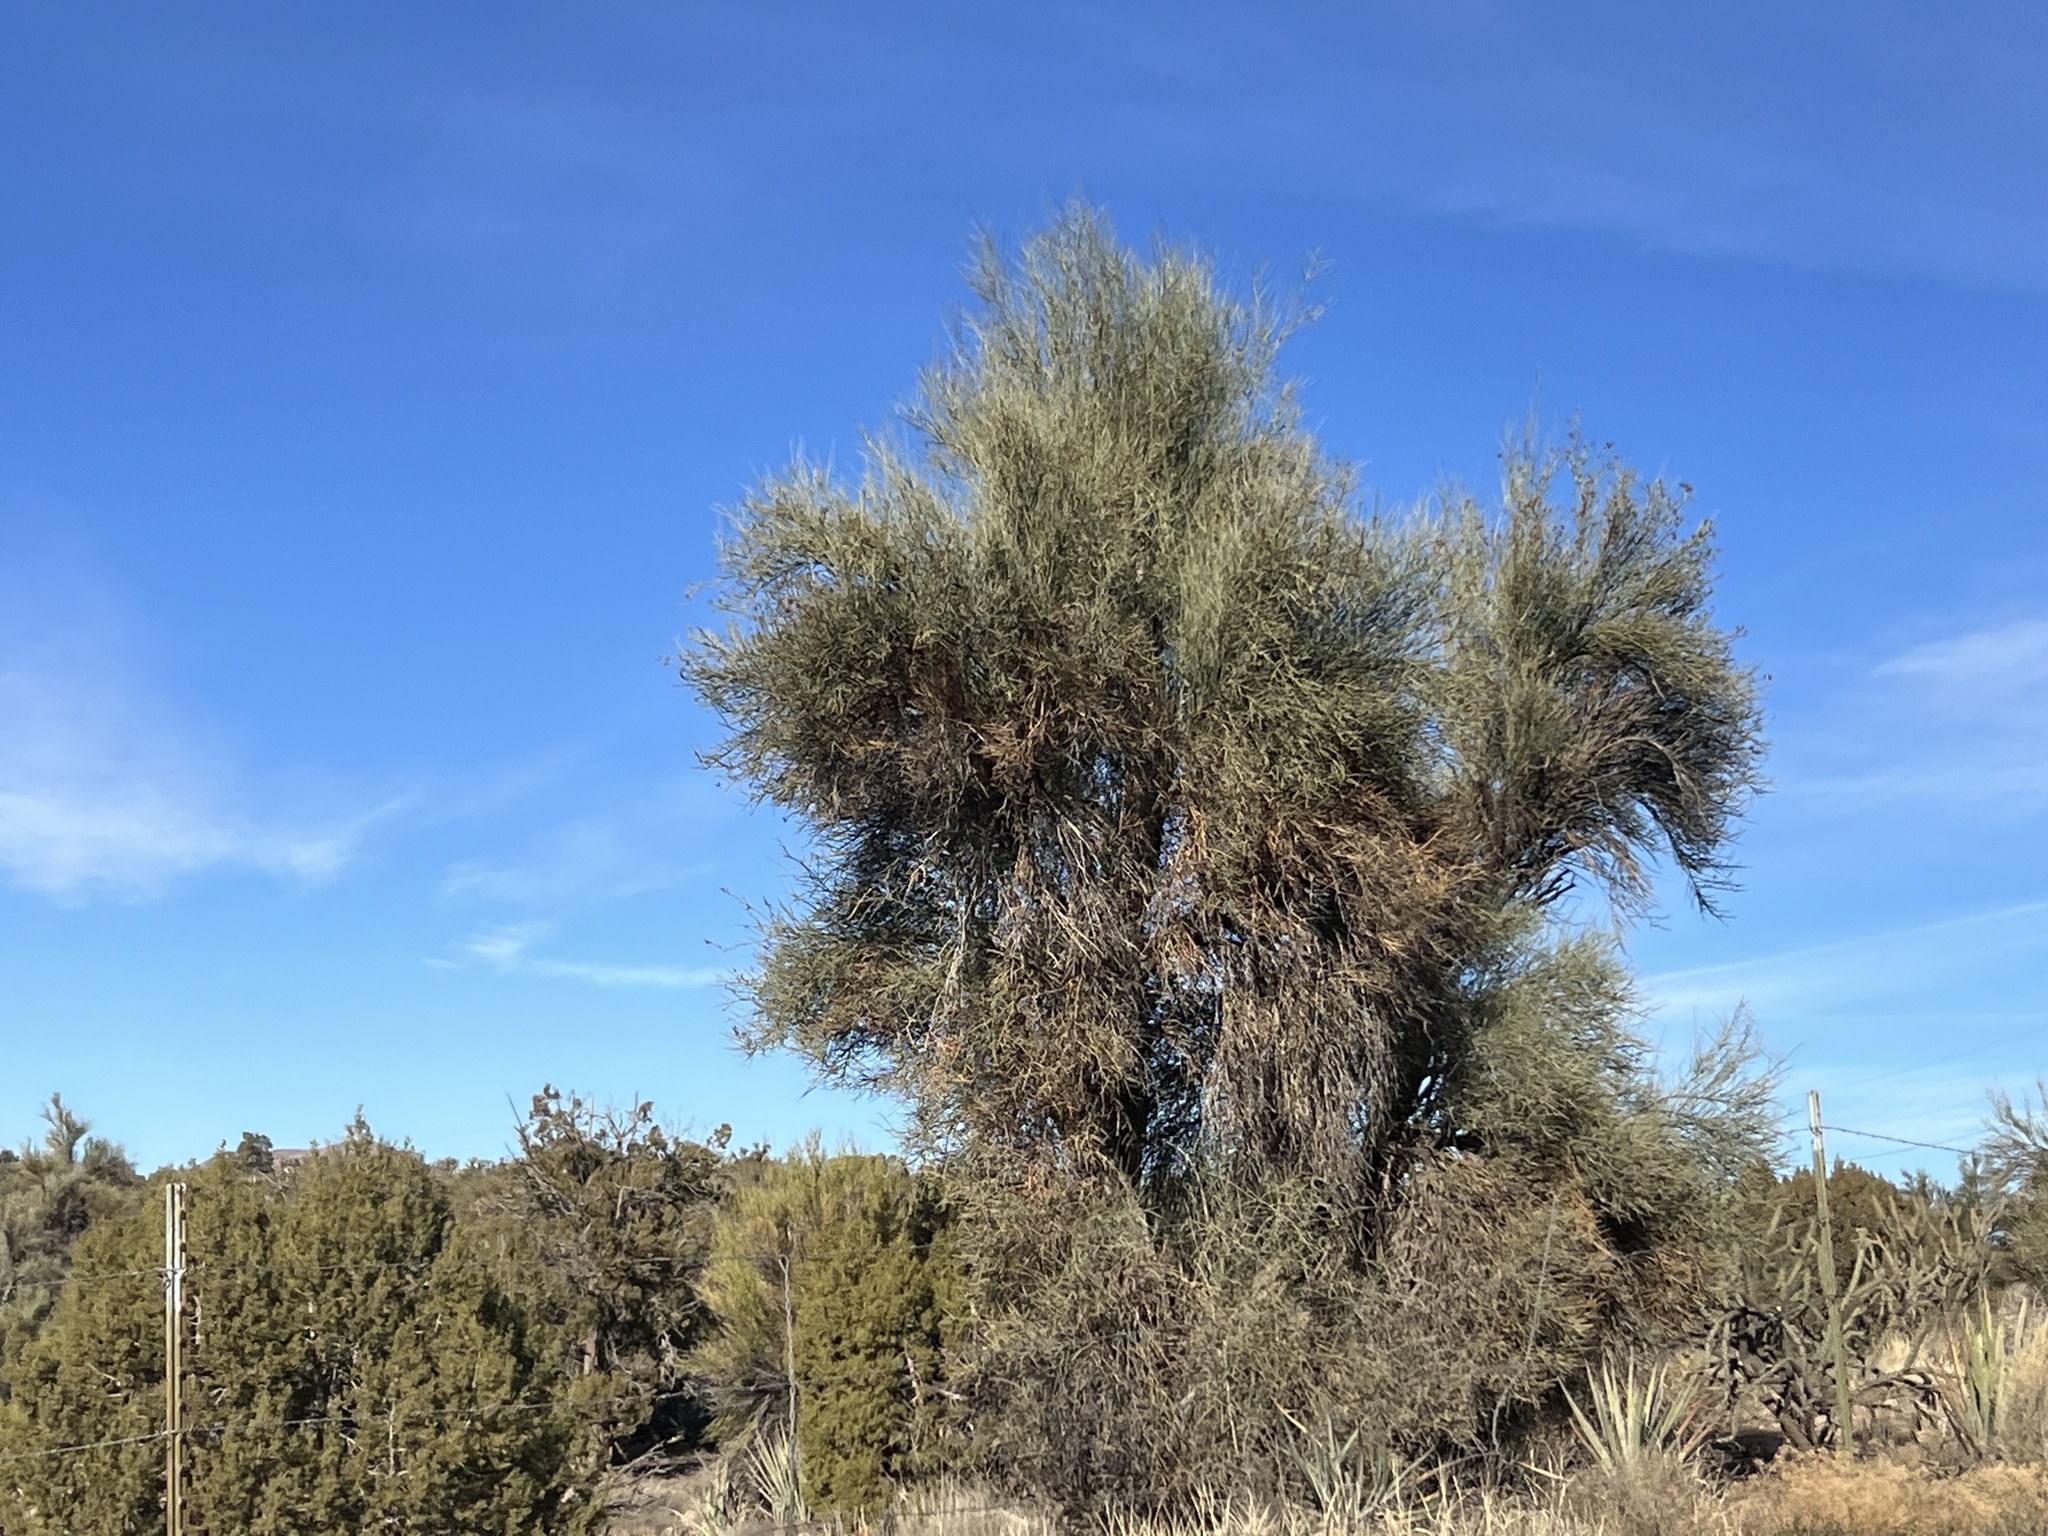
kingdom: Plantae
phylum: Tracheophyta
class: Magnoliopsida
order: Celastrales
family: Celastraceae
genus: Canotia
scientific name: Canotia holacantha
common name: Crucifixion thorns
